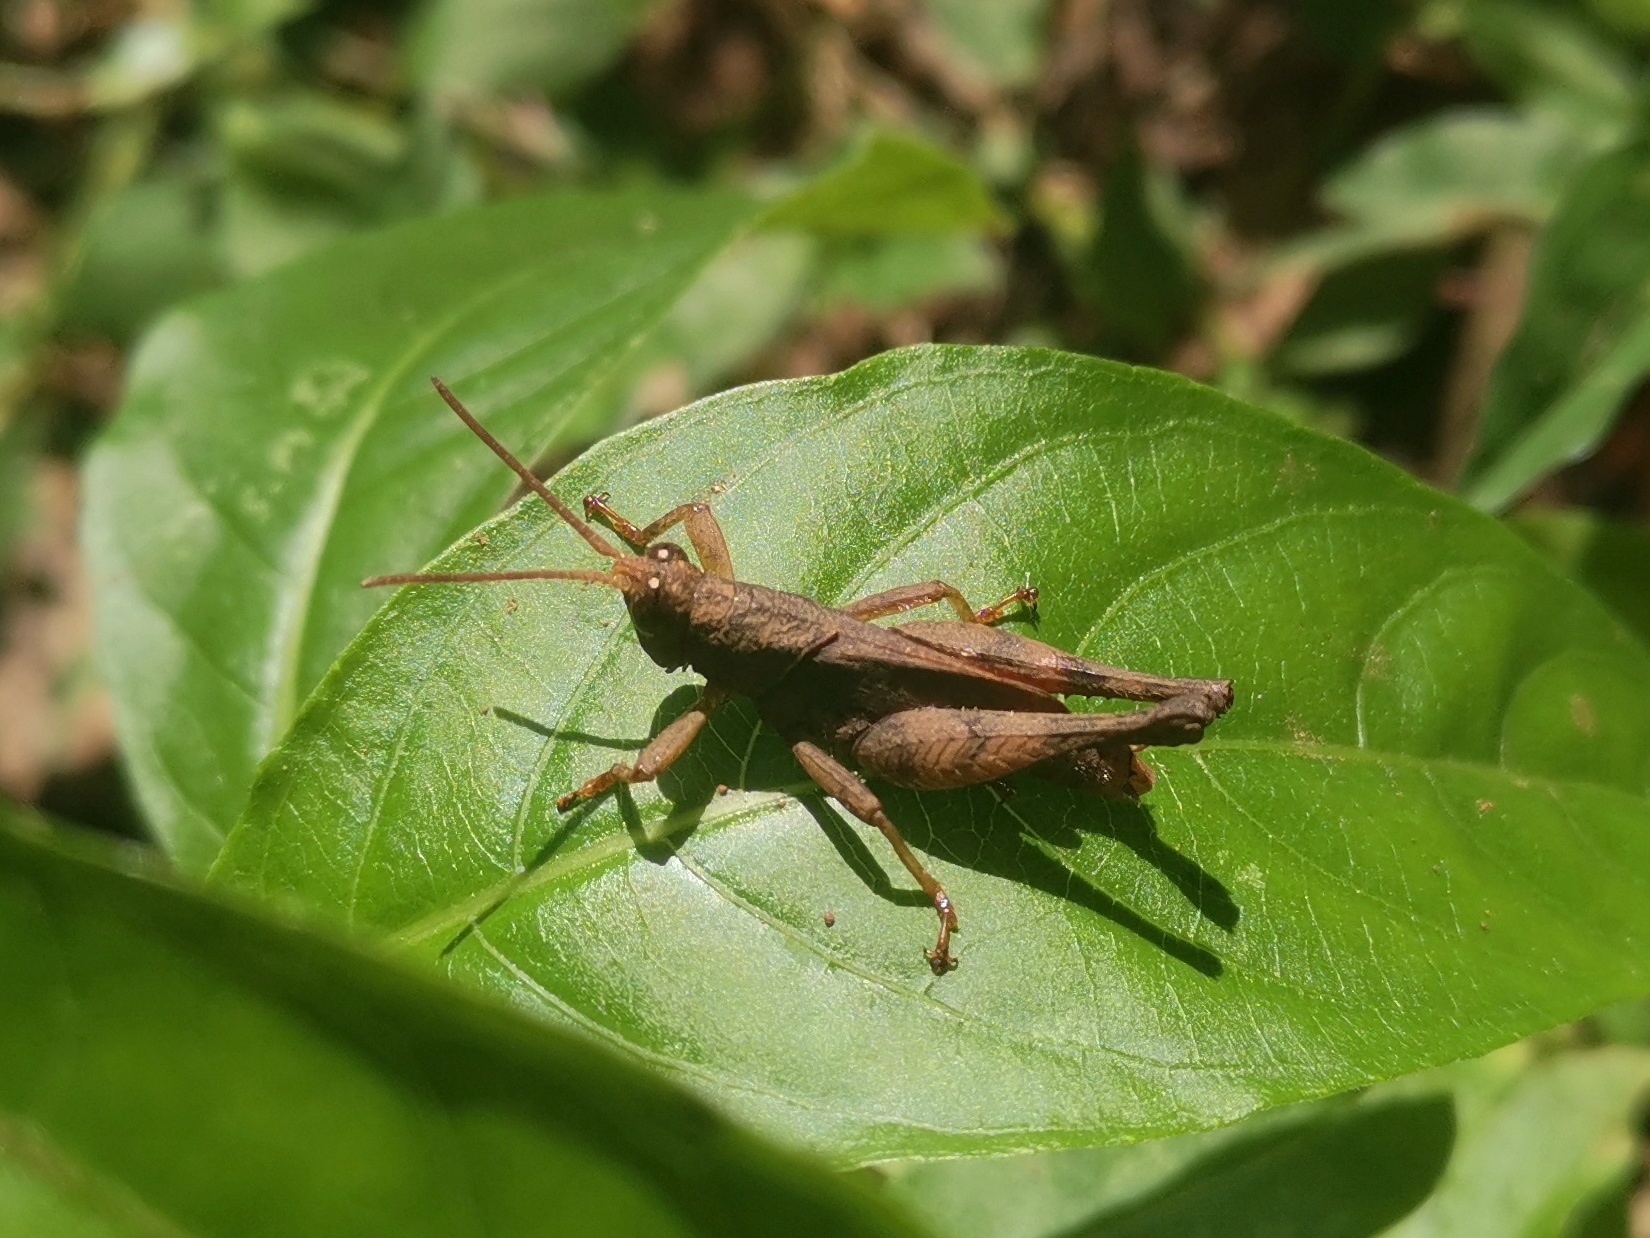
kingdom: Animalia
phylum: Arthropoda
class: Insecta
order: Orthoptera
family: Acrididae
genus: Coptacrella
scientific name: Coptacrella martini
